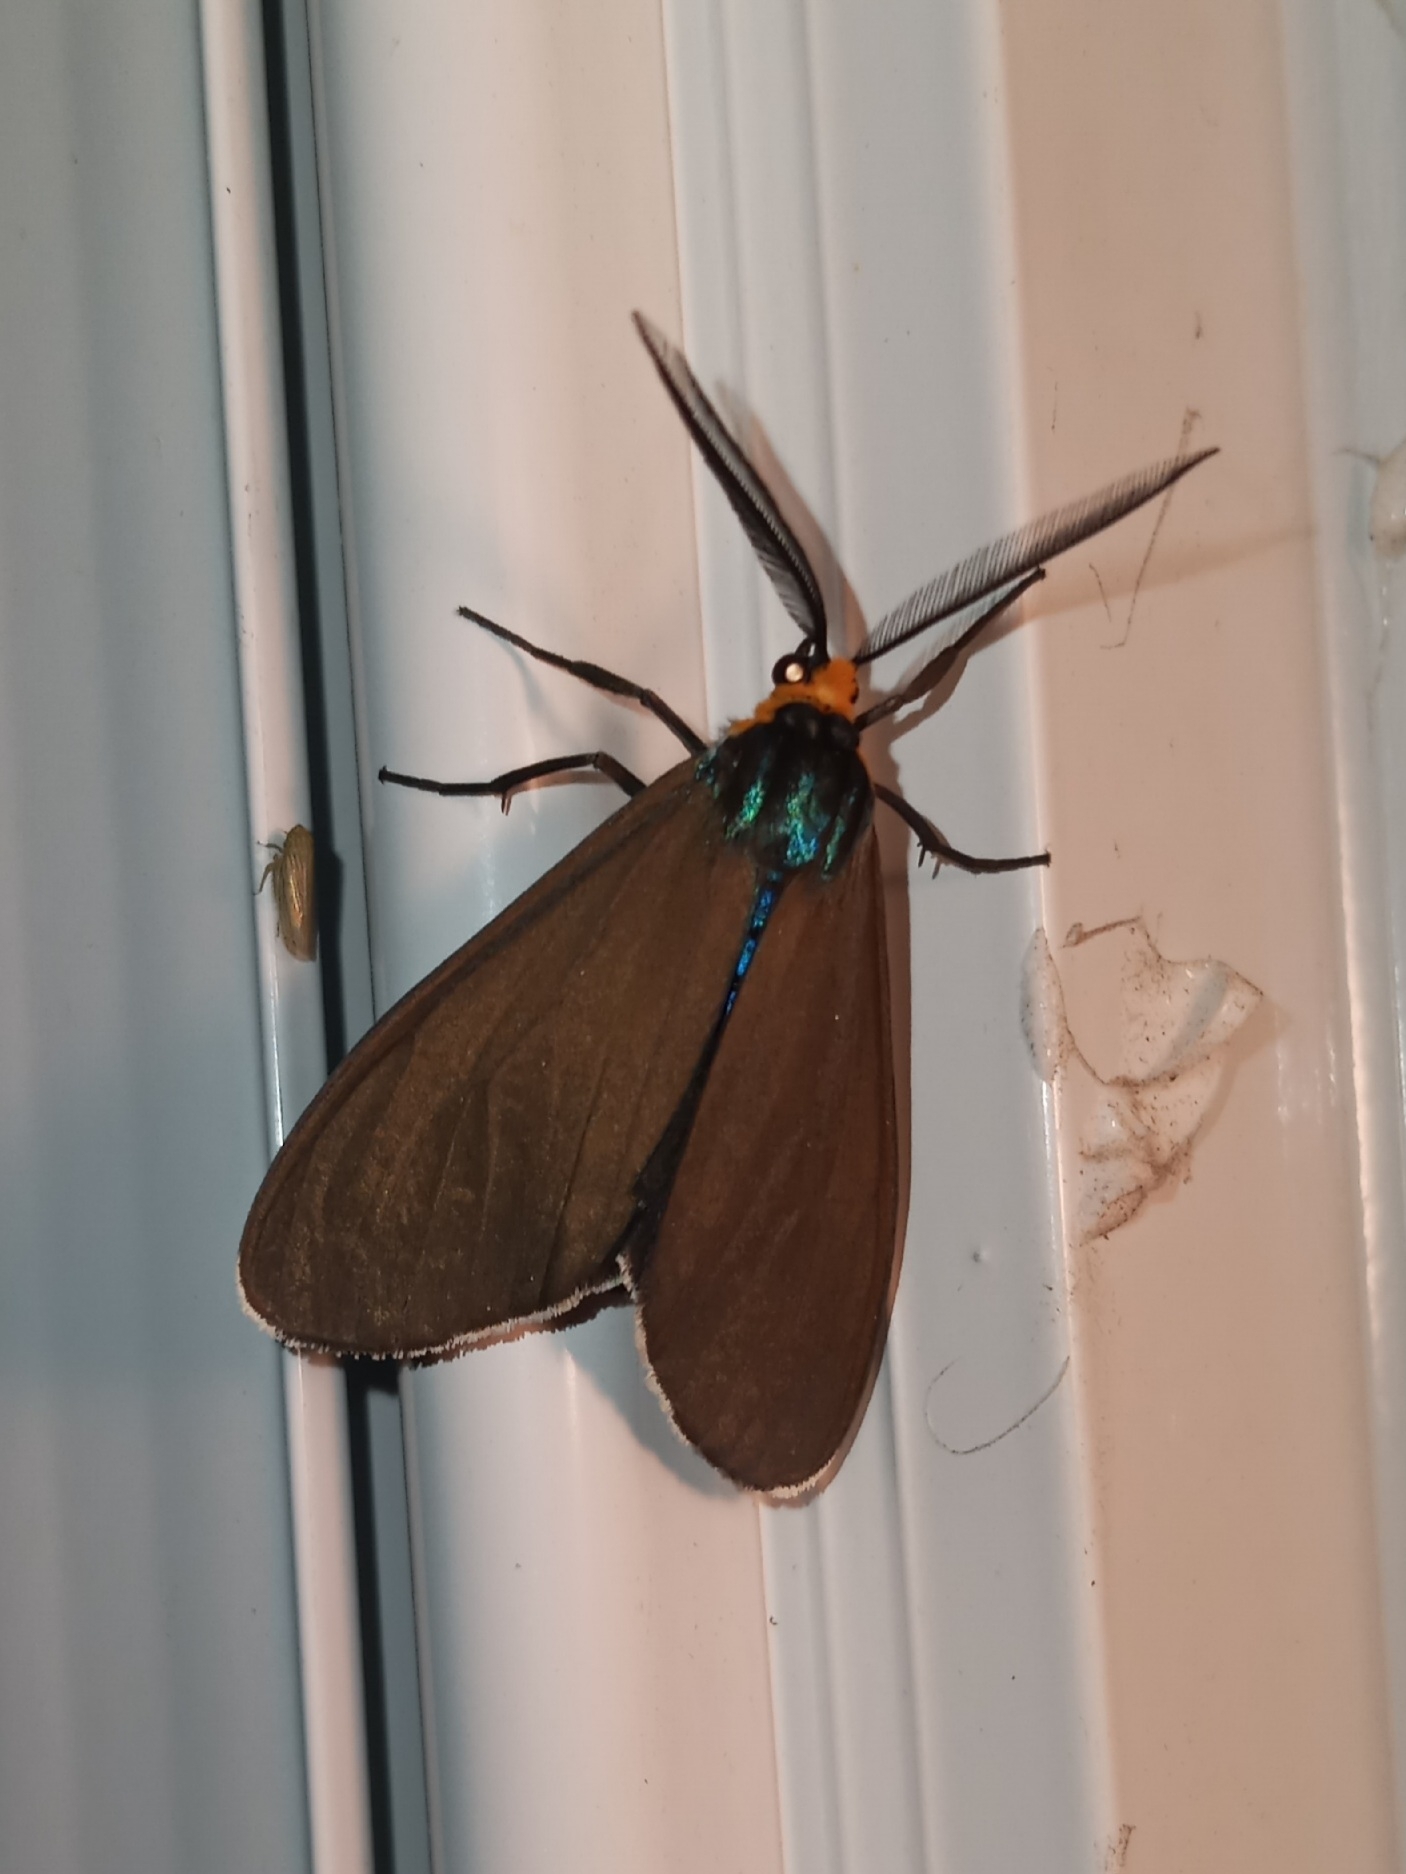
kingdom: Animalia
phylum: Arthropoda
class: Insecta
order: Lepidoptera
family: Erebidae
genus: Ctenucha
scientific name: Ctenucha virginica
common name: Virginia ctenucha moth
